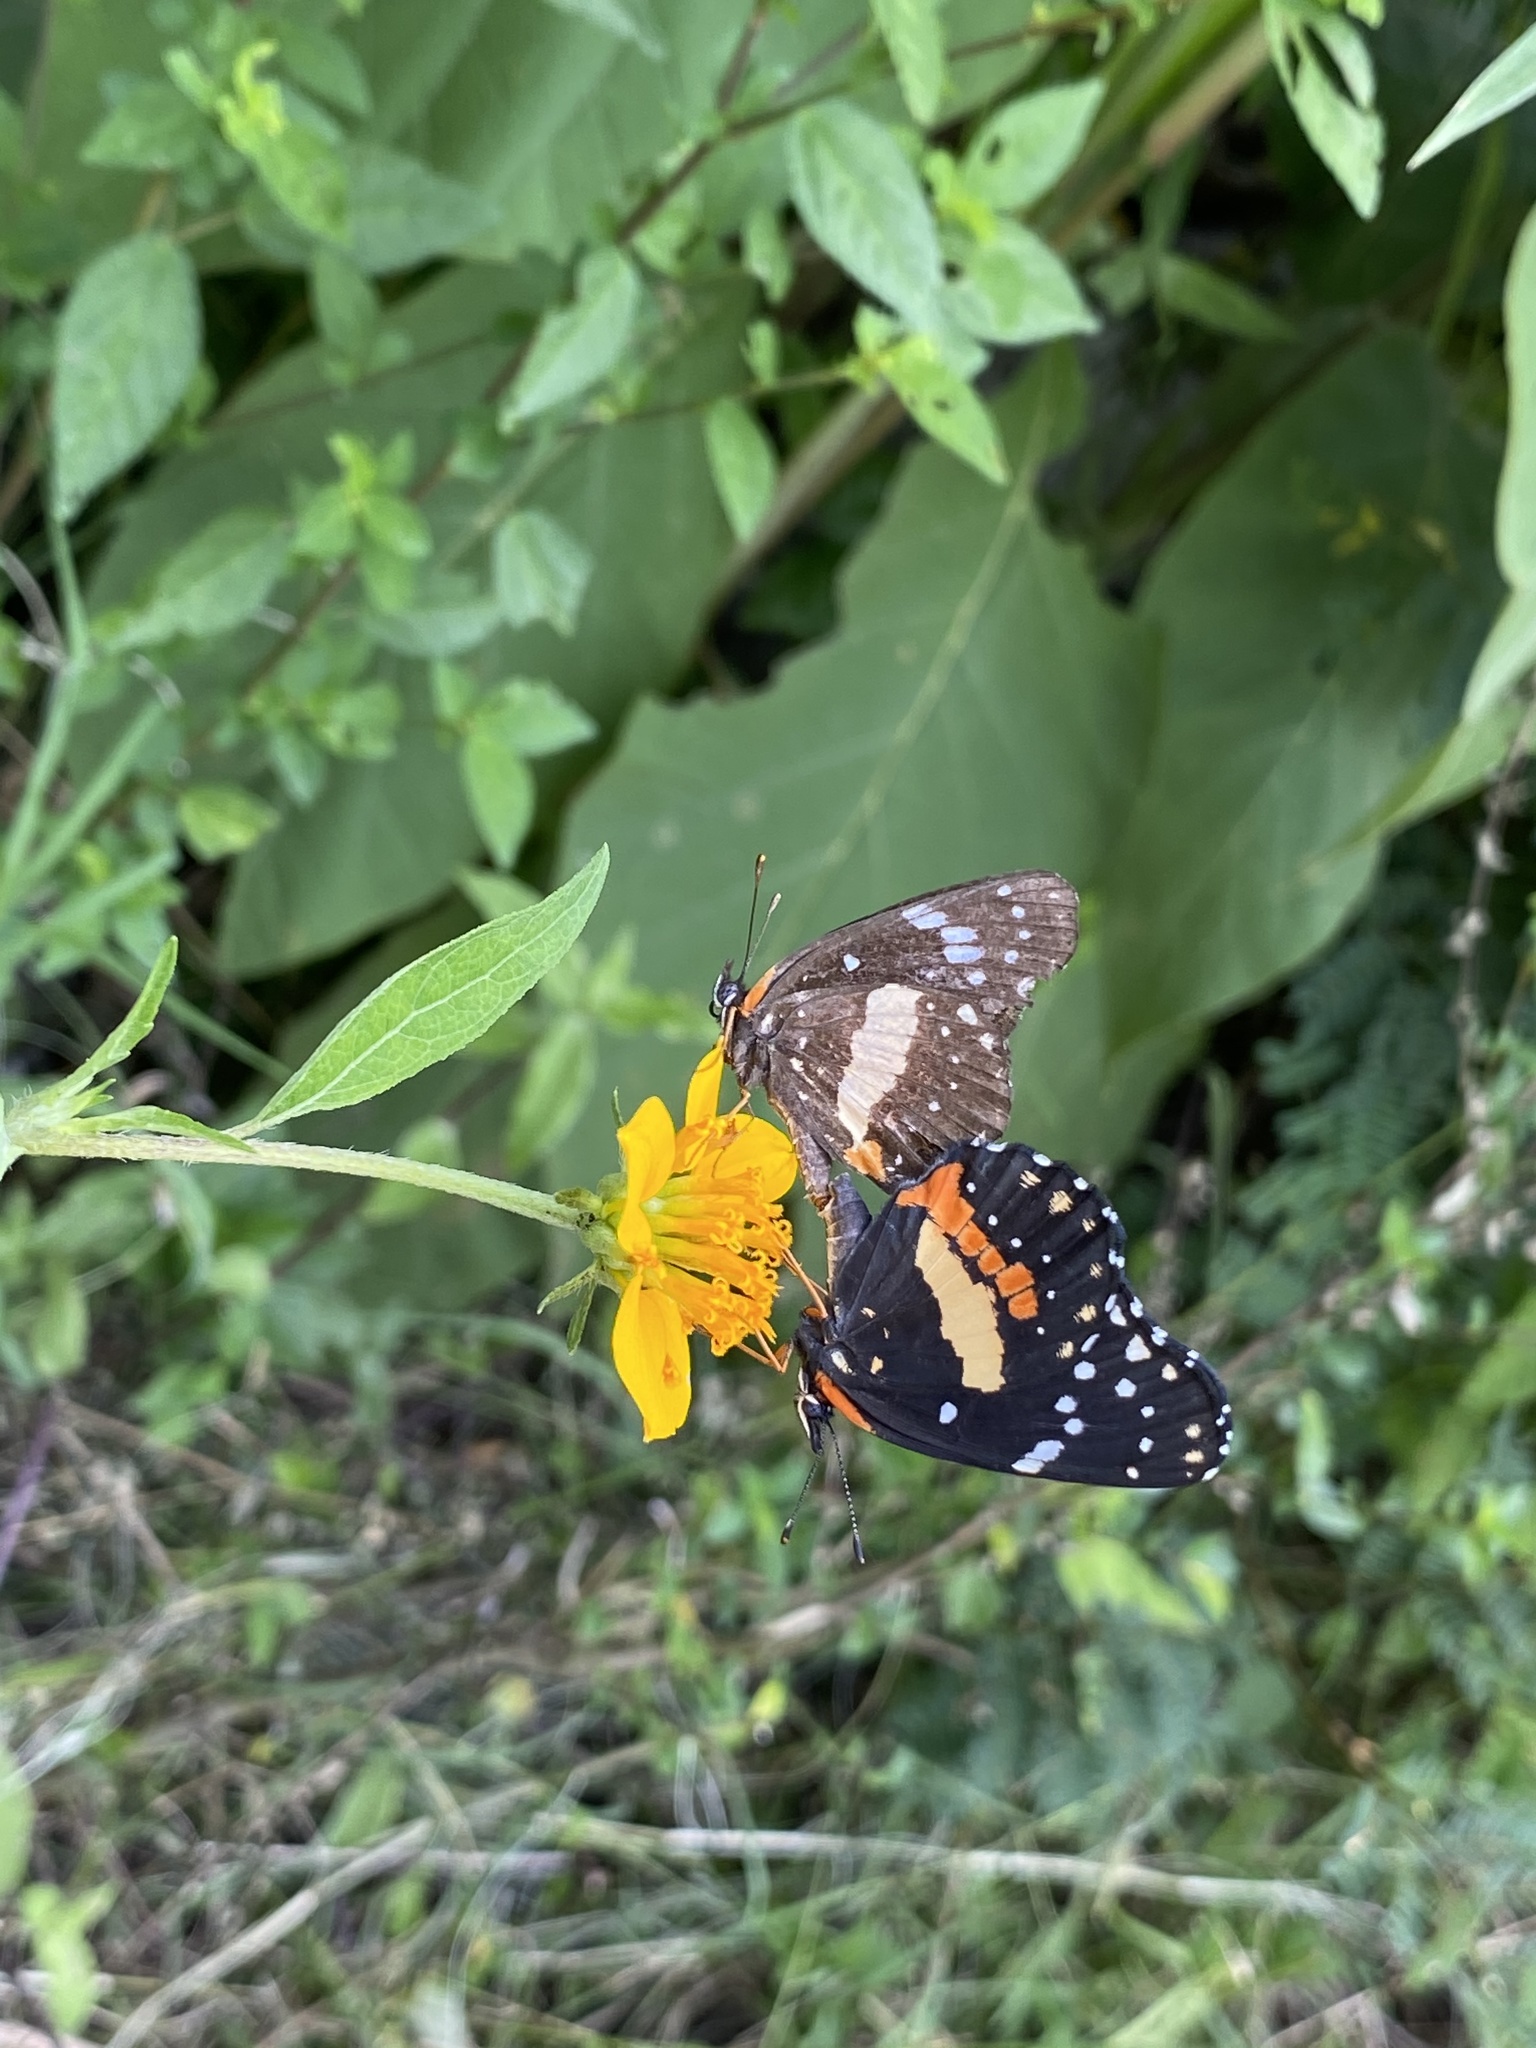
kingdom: Animalia
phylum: Arthropoda
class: Insecta
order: Lepidoptera
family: Nymphalidae
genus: Chlosyne
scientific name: Chlosyne lacinia
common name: Bordered patch
